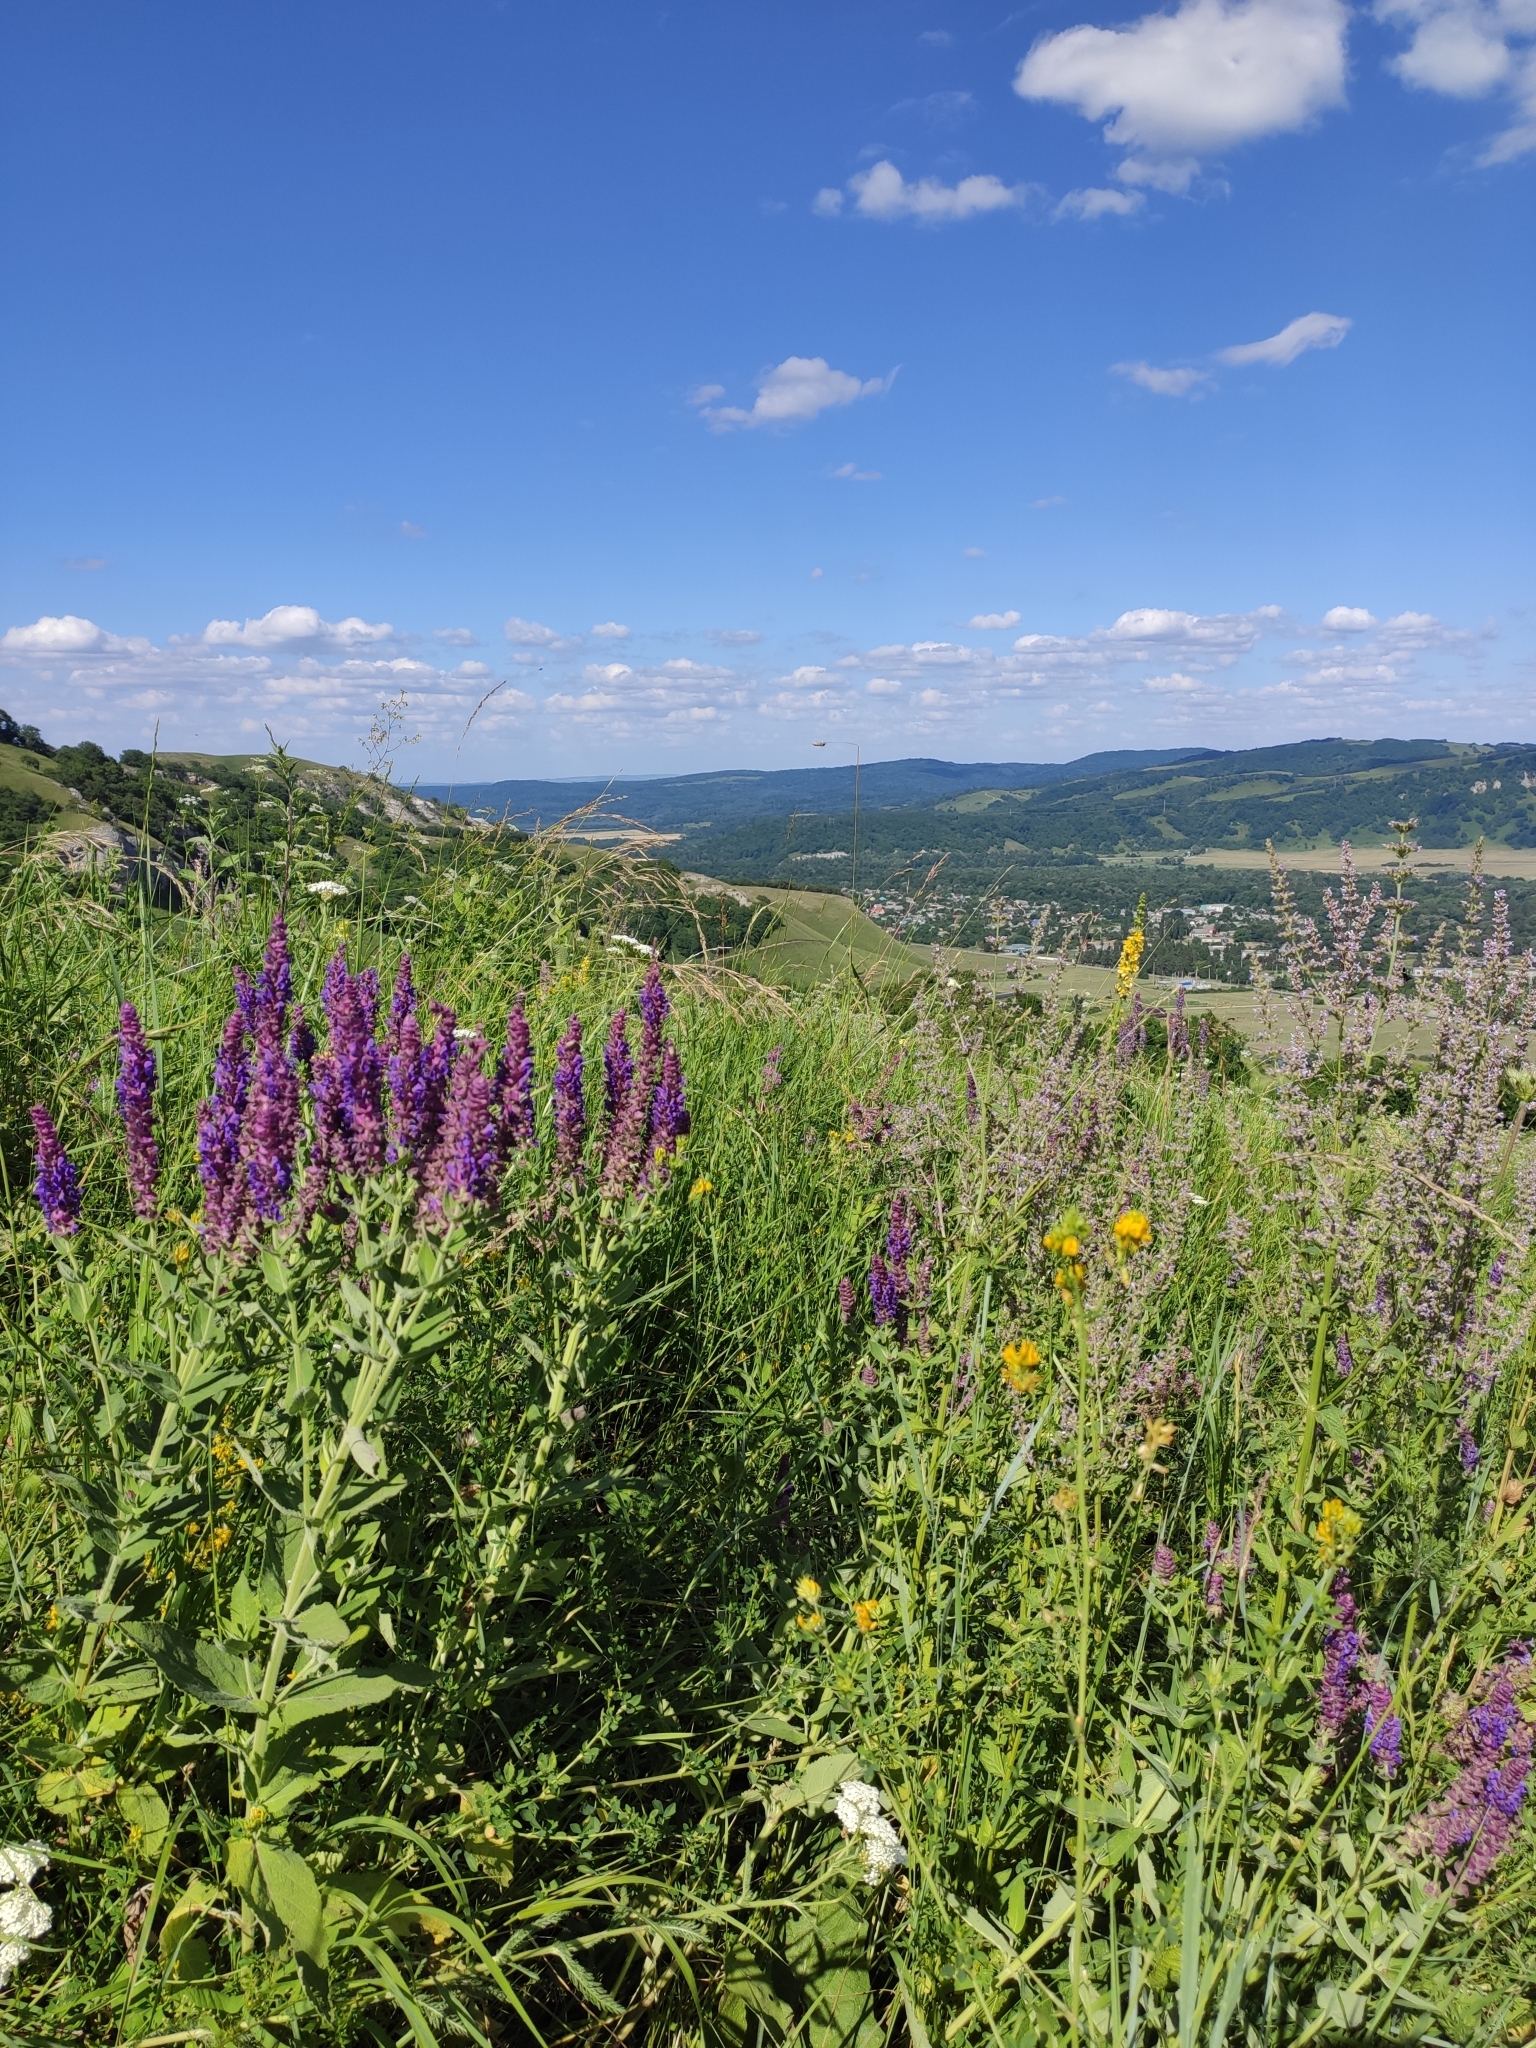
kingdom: Plantae
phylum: Tracheophyta
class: Magnoliopsida
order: Lamiales
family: Lamiaceae
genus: Salvia
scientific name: Salvia nemorosa
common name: Balkan clary
